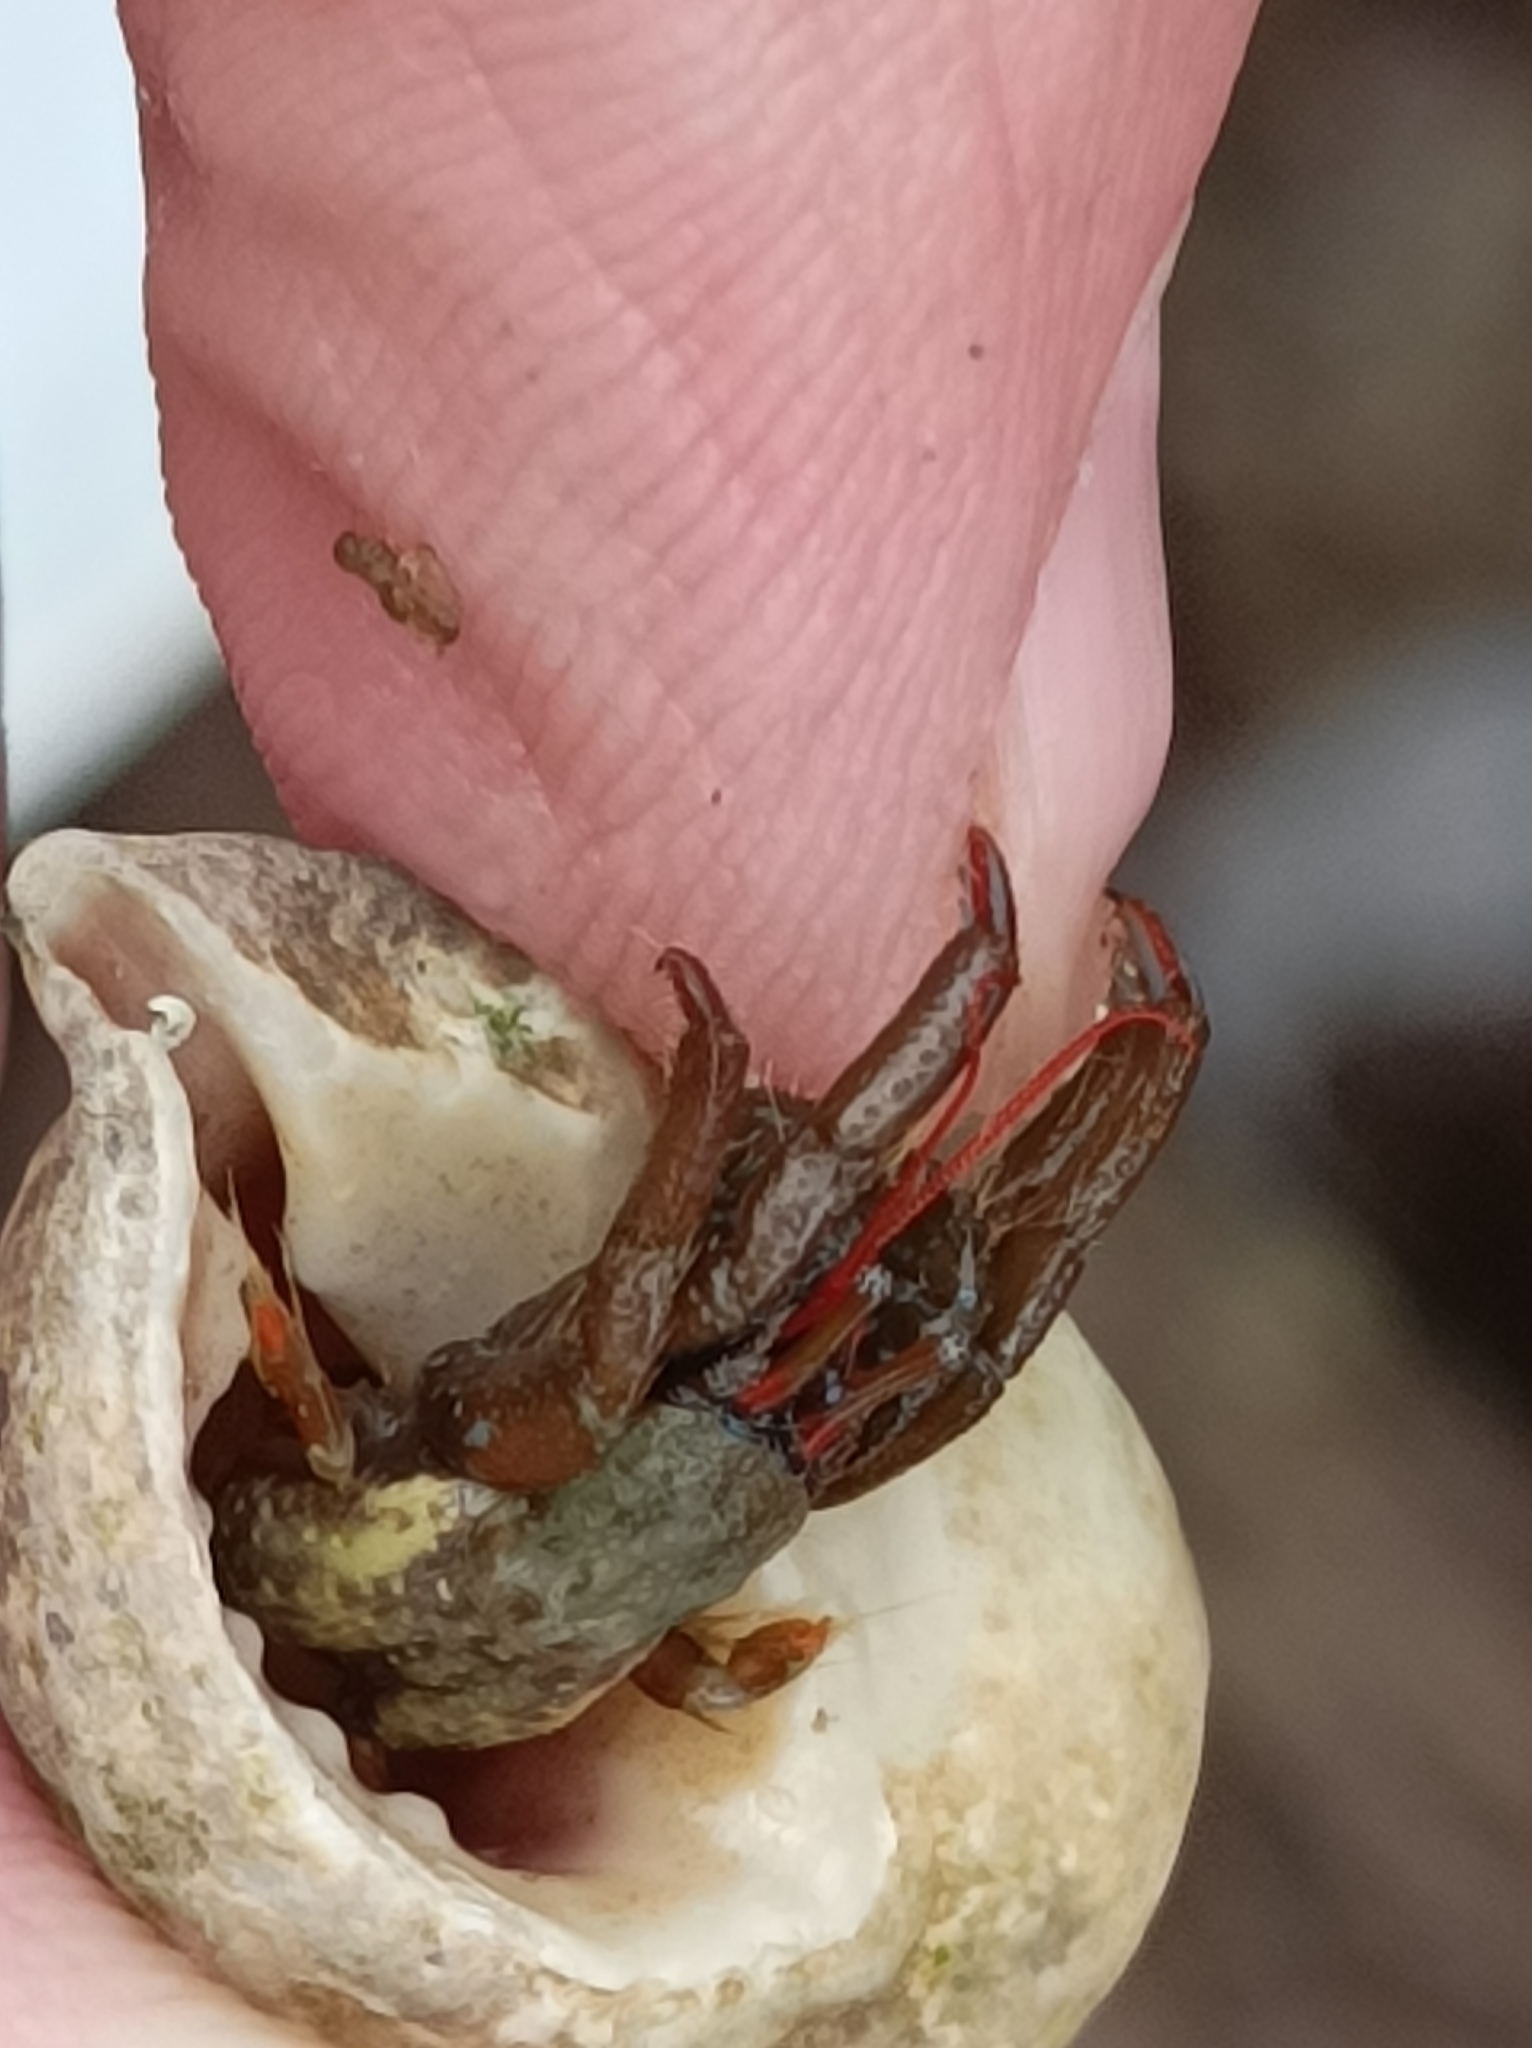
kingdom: Animalia
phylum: Arthropoda
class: Malacostraca
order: Decapoda
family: Diogenidae
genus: Clibanarius
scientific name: Clibanarius erythropus
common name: Hermit crab
